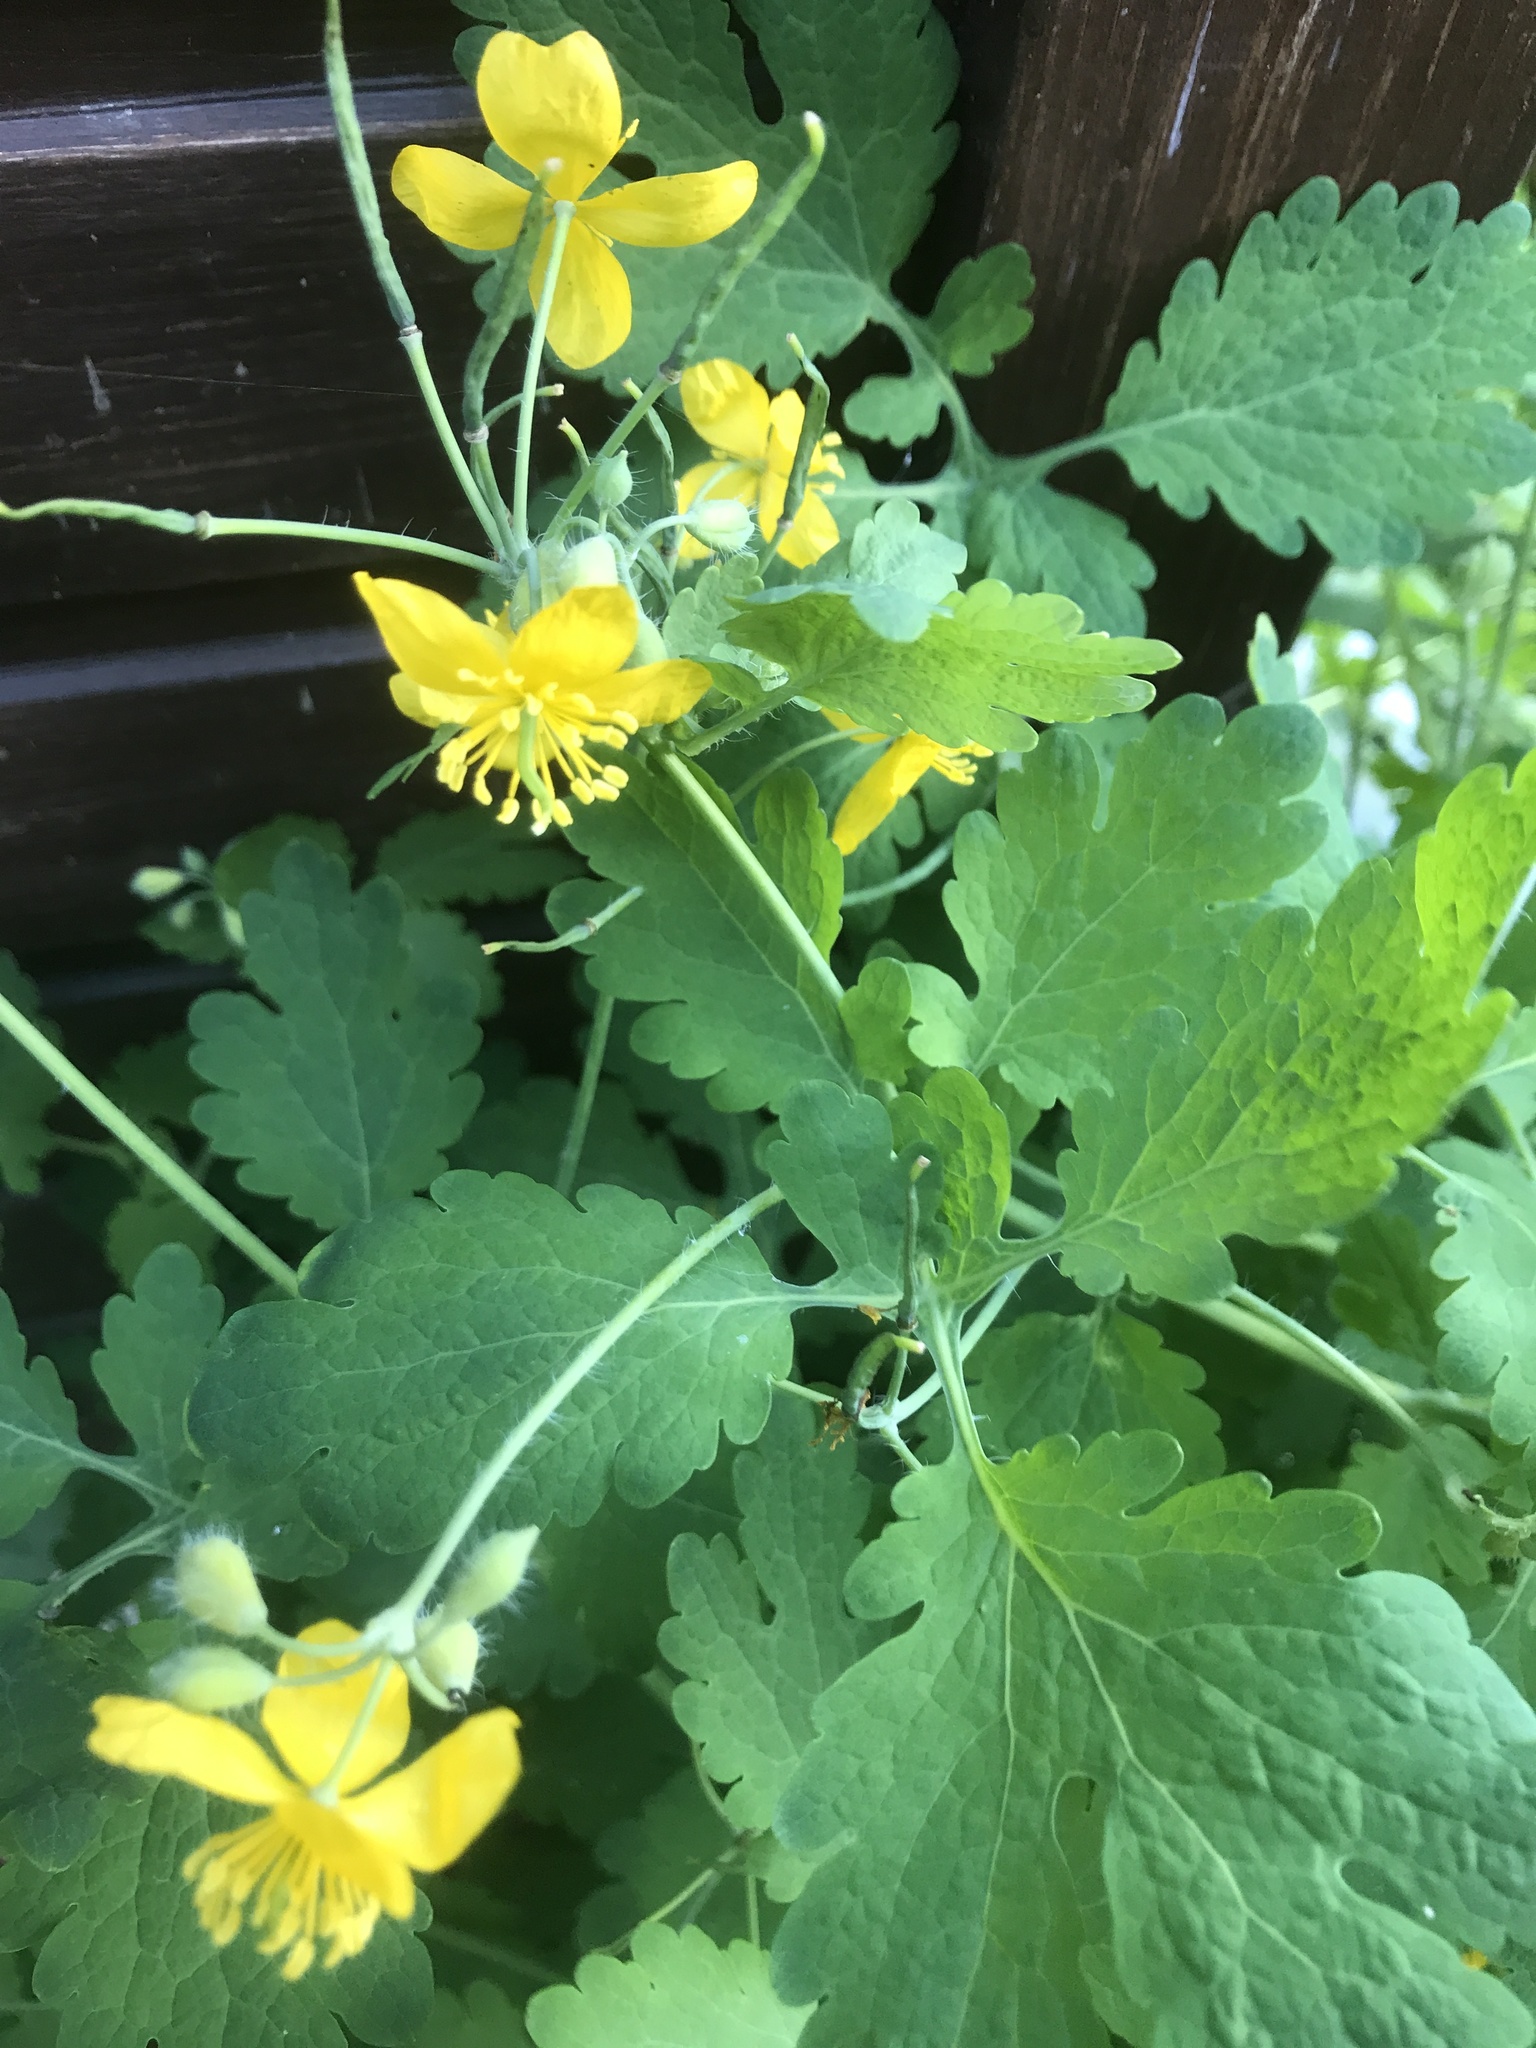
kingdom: Plantae
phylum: Tracheophyta
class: Magnoliopsida
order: Ranunculales
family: Papaveraceae
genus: Chelidonium
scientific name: Chelidonium majus
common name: Greater celandine
